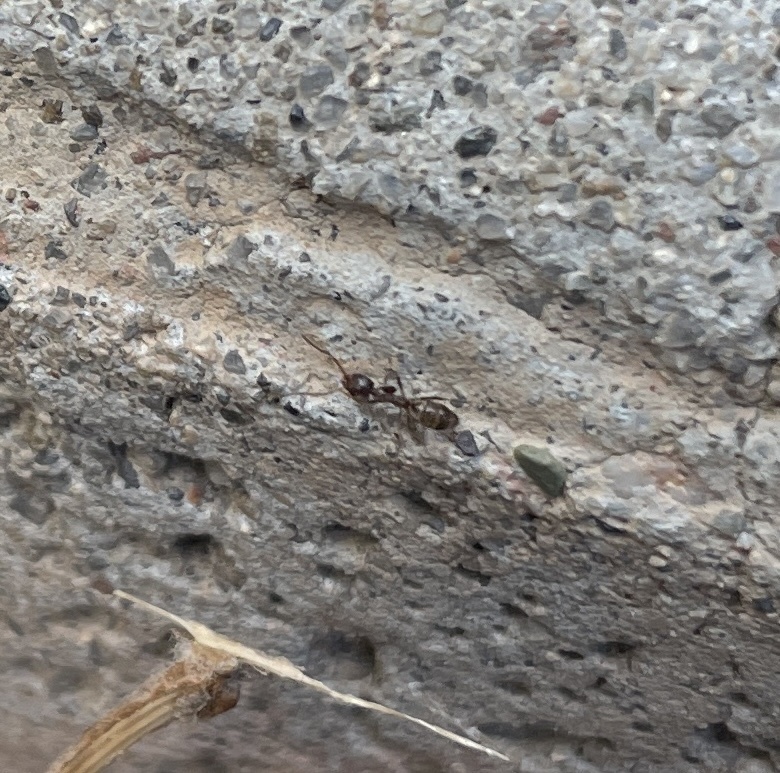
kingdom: Animalia
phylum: Arthropoda
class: Insecta
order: Hymenoptera
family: Formicidae
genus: Linepithema
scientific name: Linepithema humile
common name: Argentine ant
